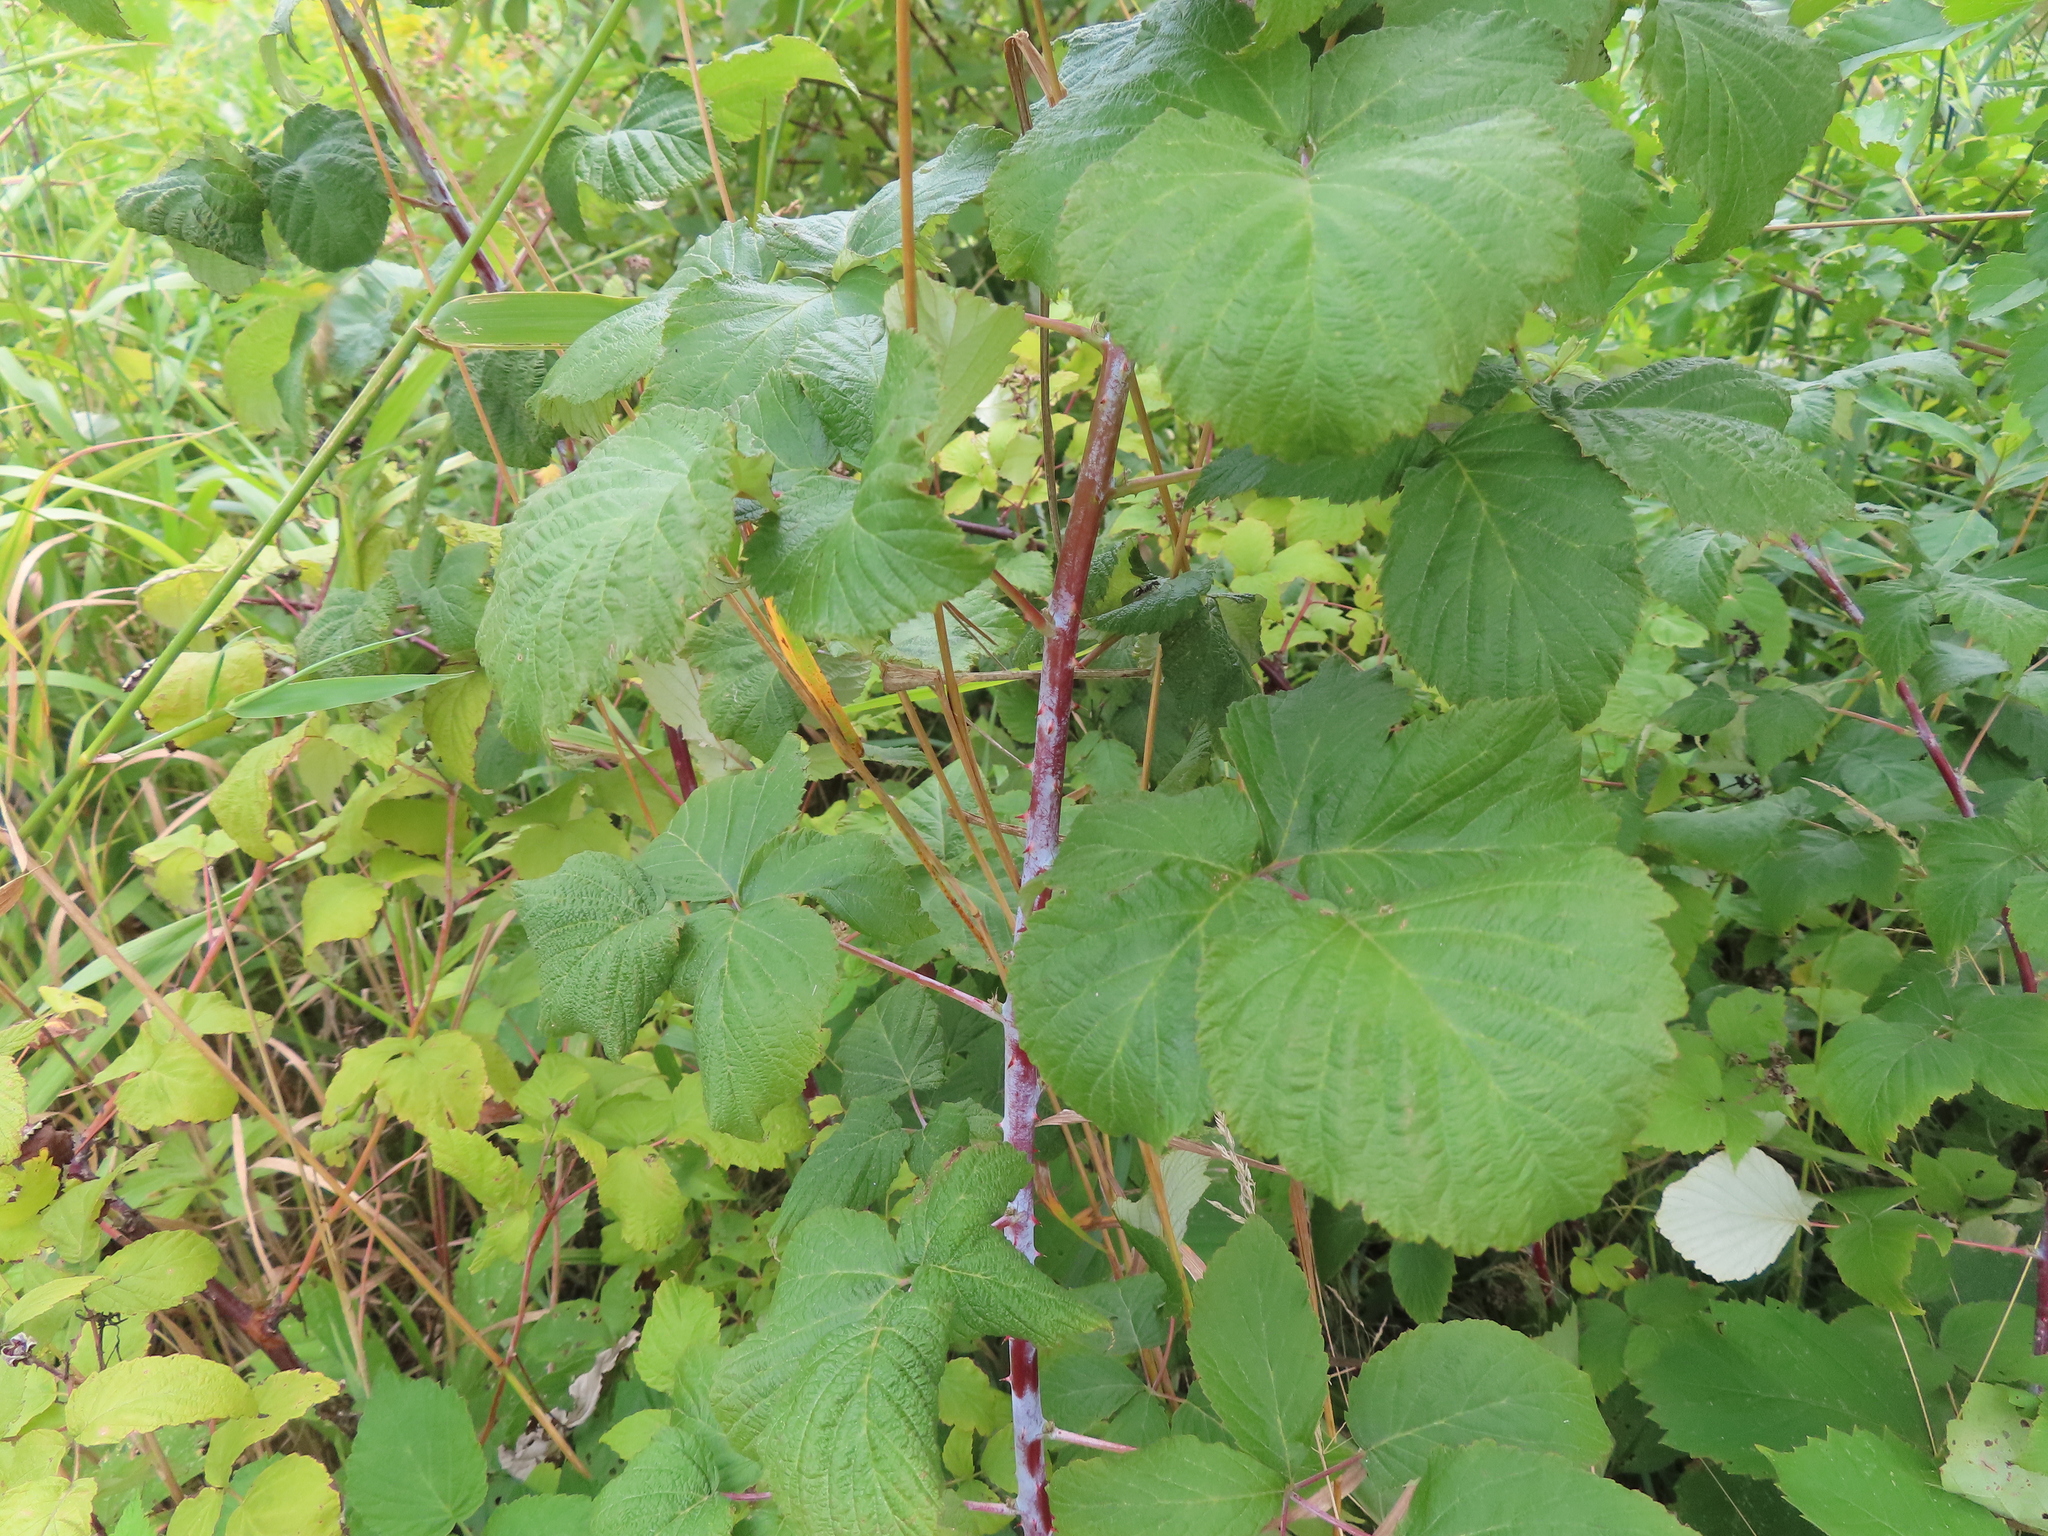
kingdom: Plantae
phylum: Tracheophyta
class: Magnoliopsida
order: Rosales
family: Rosaceae
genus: Rubus
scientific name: Rubus occidentalis
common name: Black raspberry
